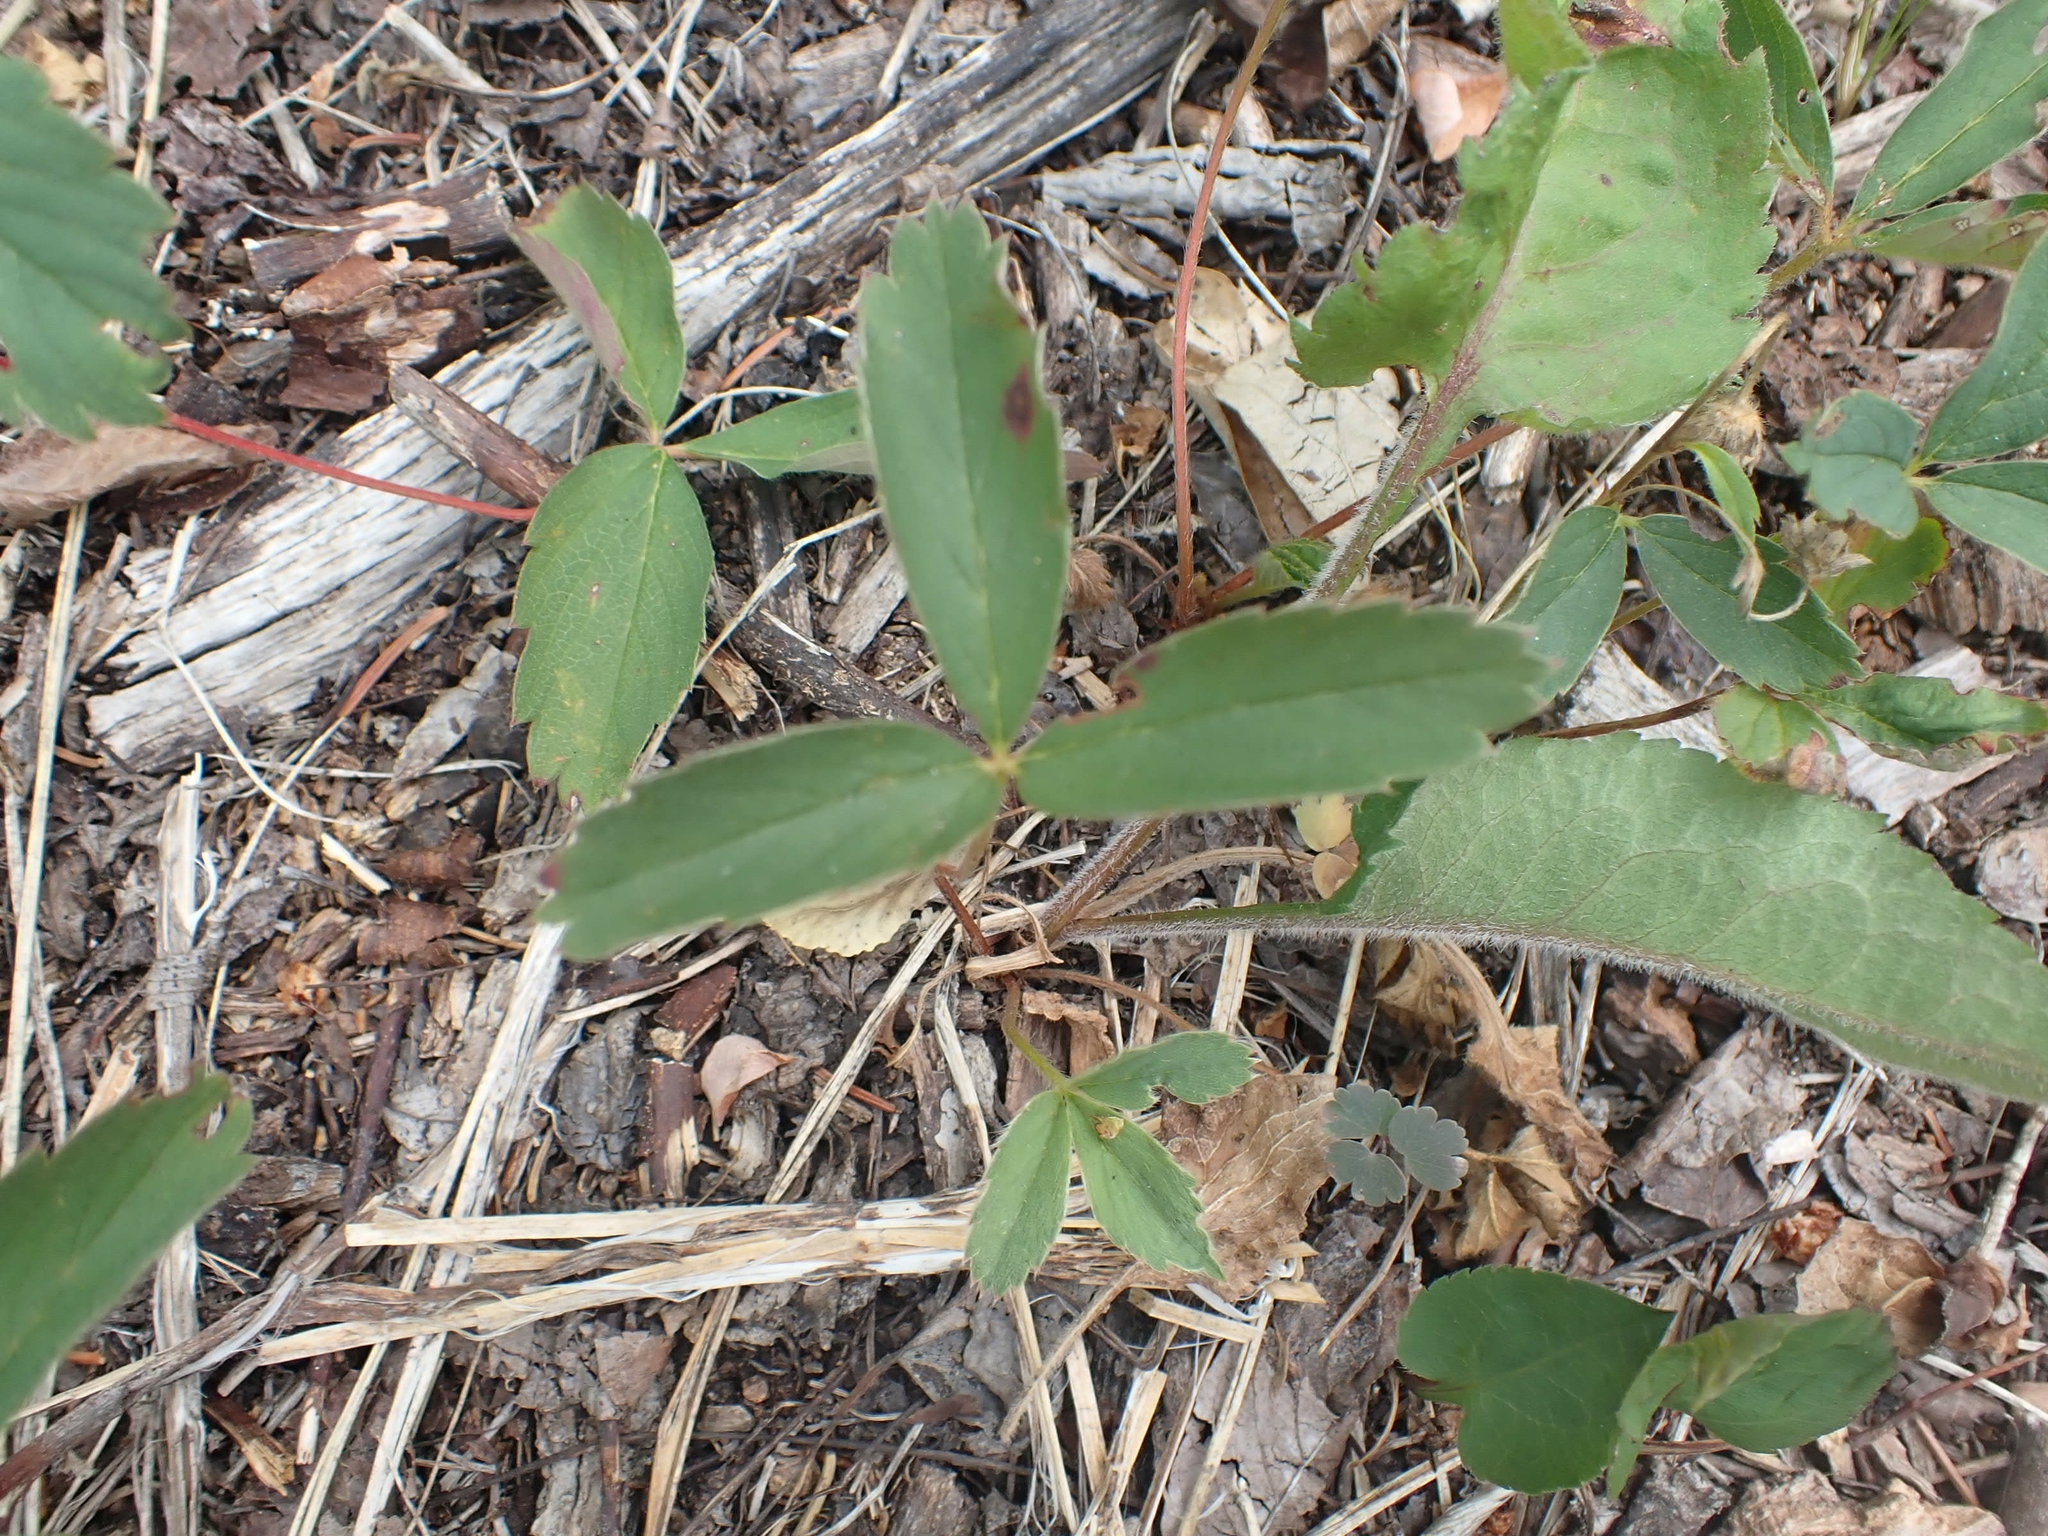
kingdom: Plantae
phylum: Tracheophyta
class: Magnoliopsida
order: Rosales
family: Rosaceae
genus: Fragaria
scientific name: Fragaria virginiana
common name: Thickleaved wild strawberry
